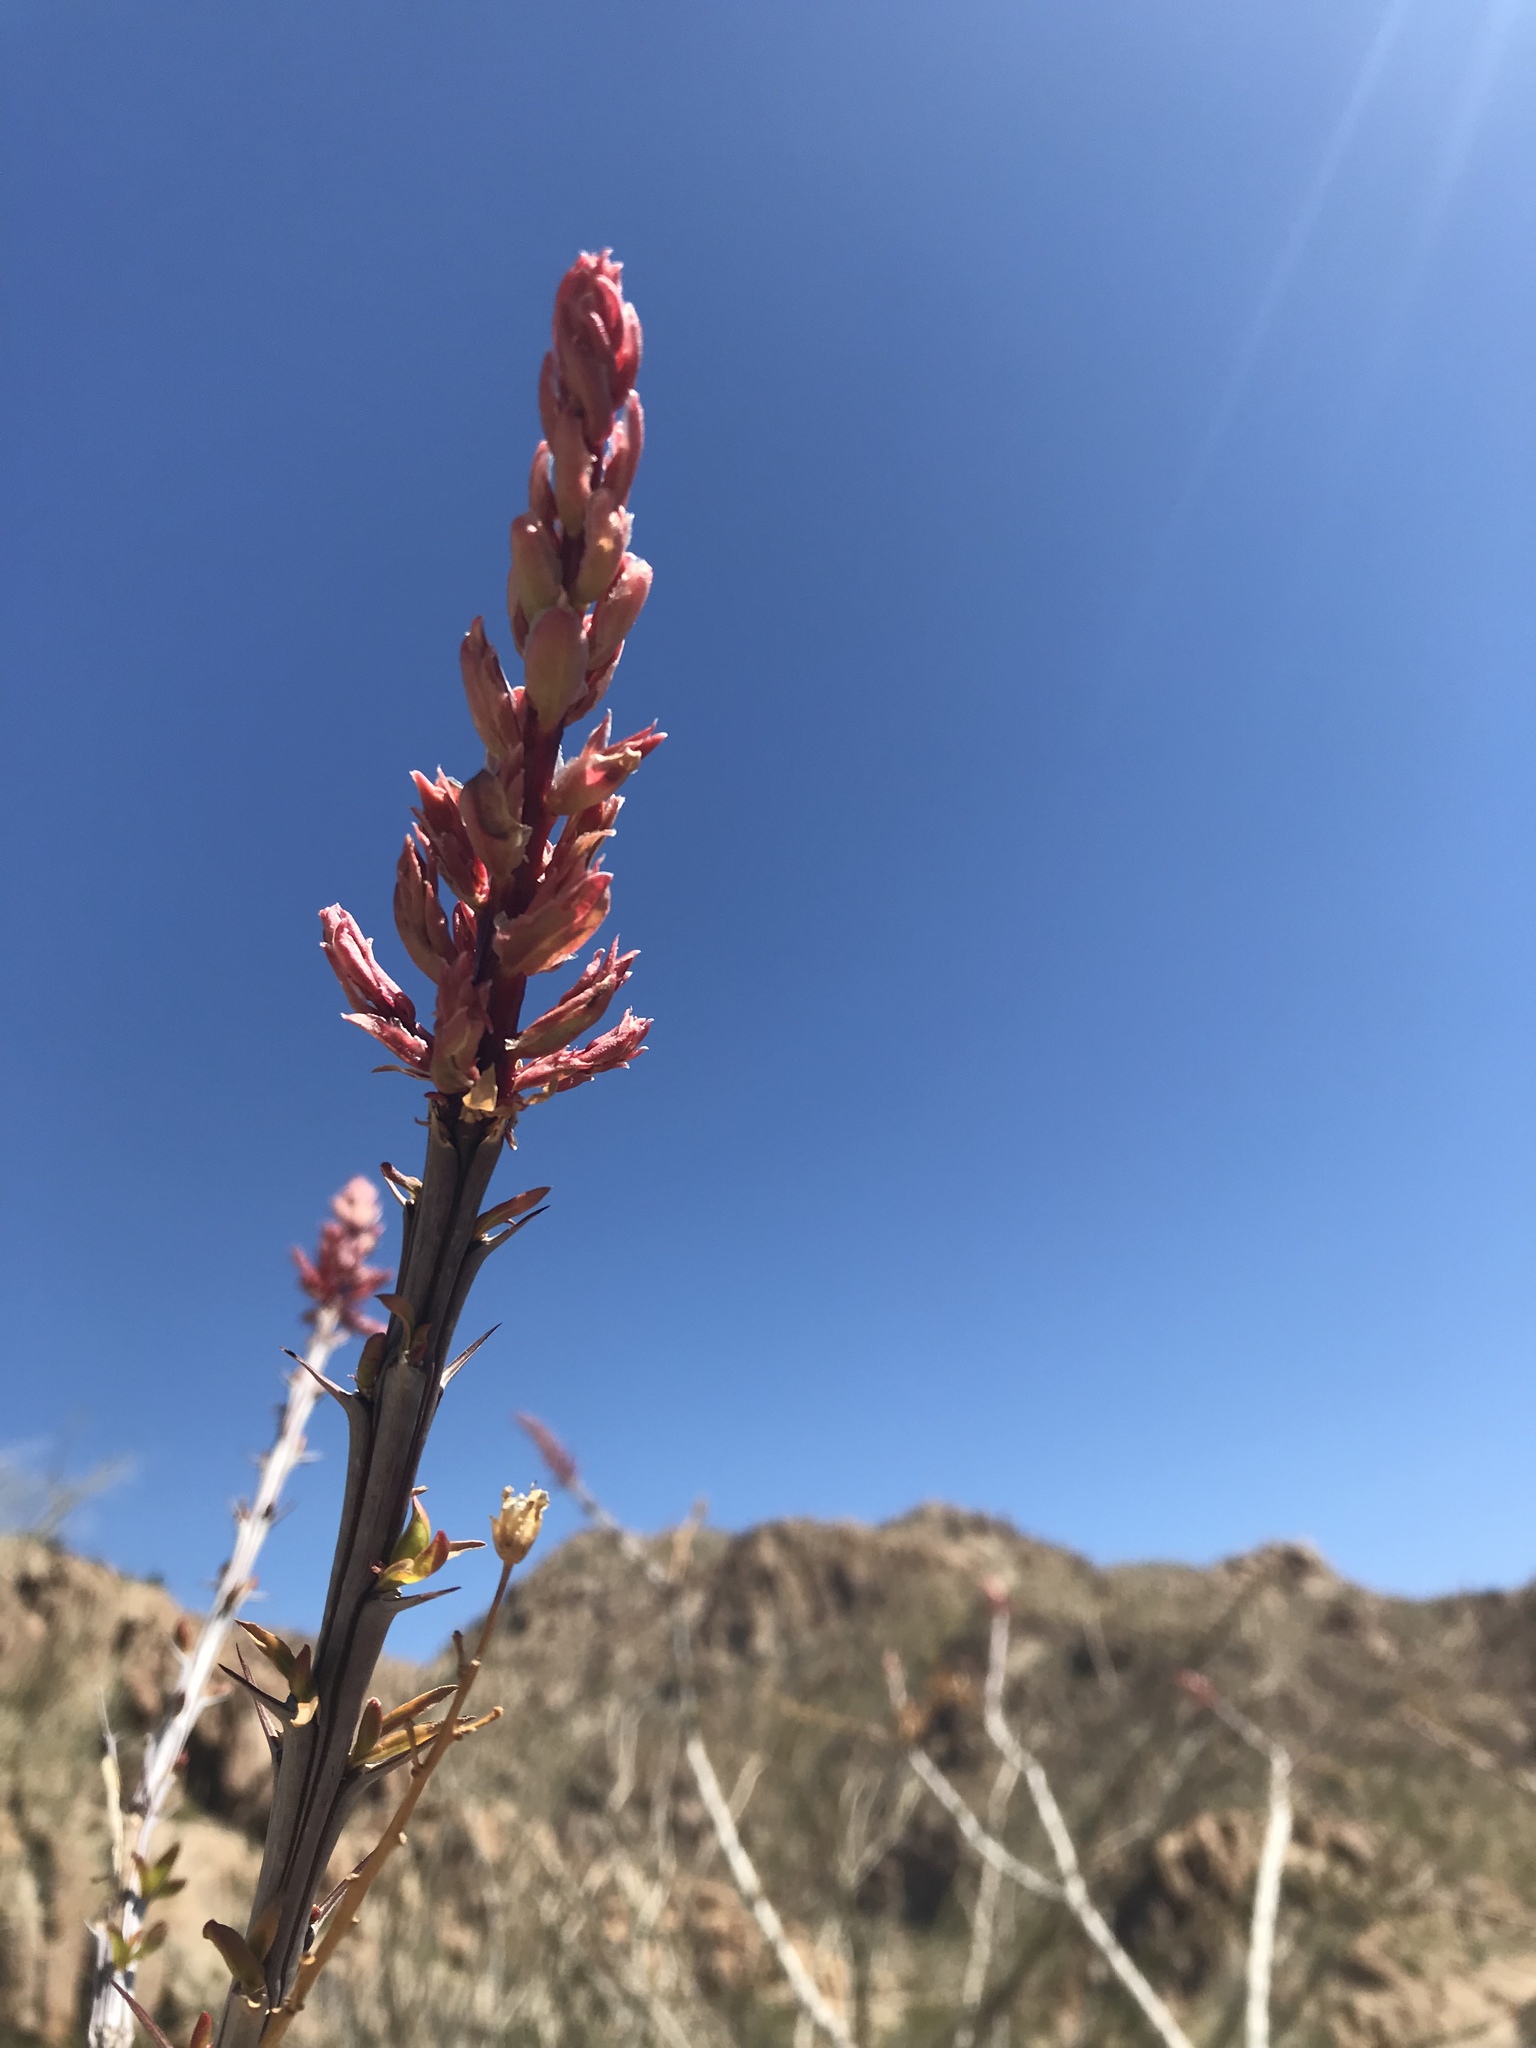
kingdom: Plantae
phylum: Tracheophyta
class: Magnoliopsida
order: Ericales
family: Fouquieriaceae
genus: Fouquieria
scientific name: Fouquieria splendens
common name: Vine-cactus
